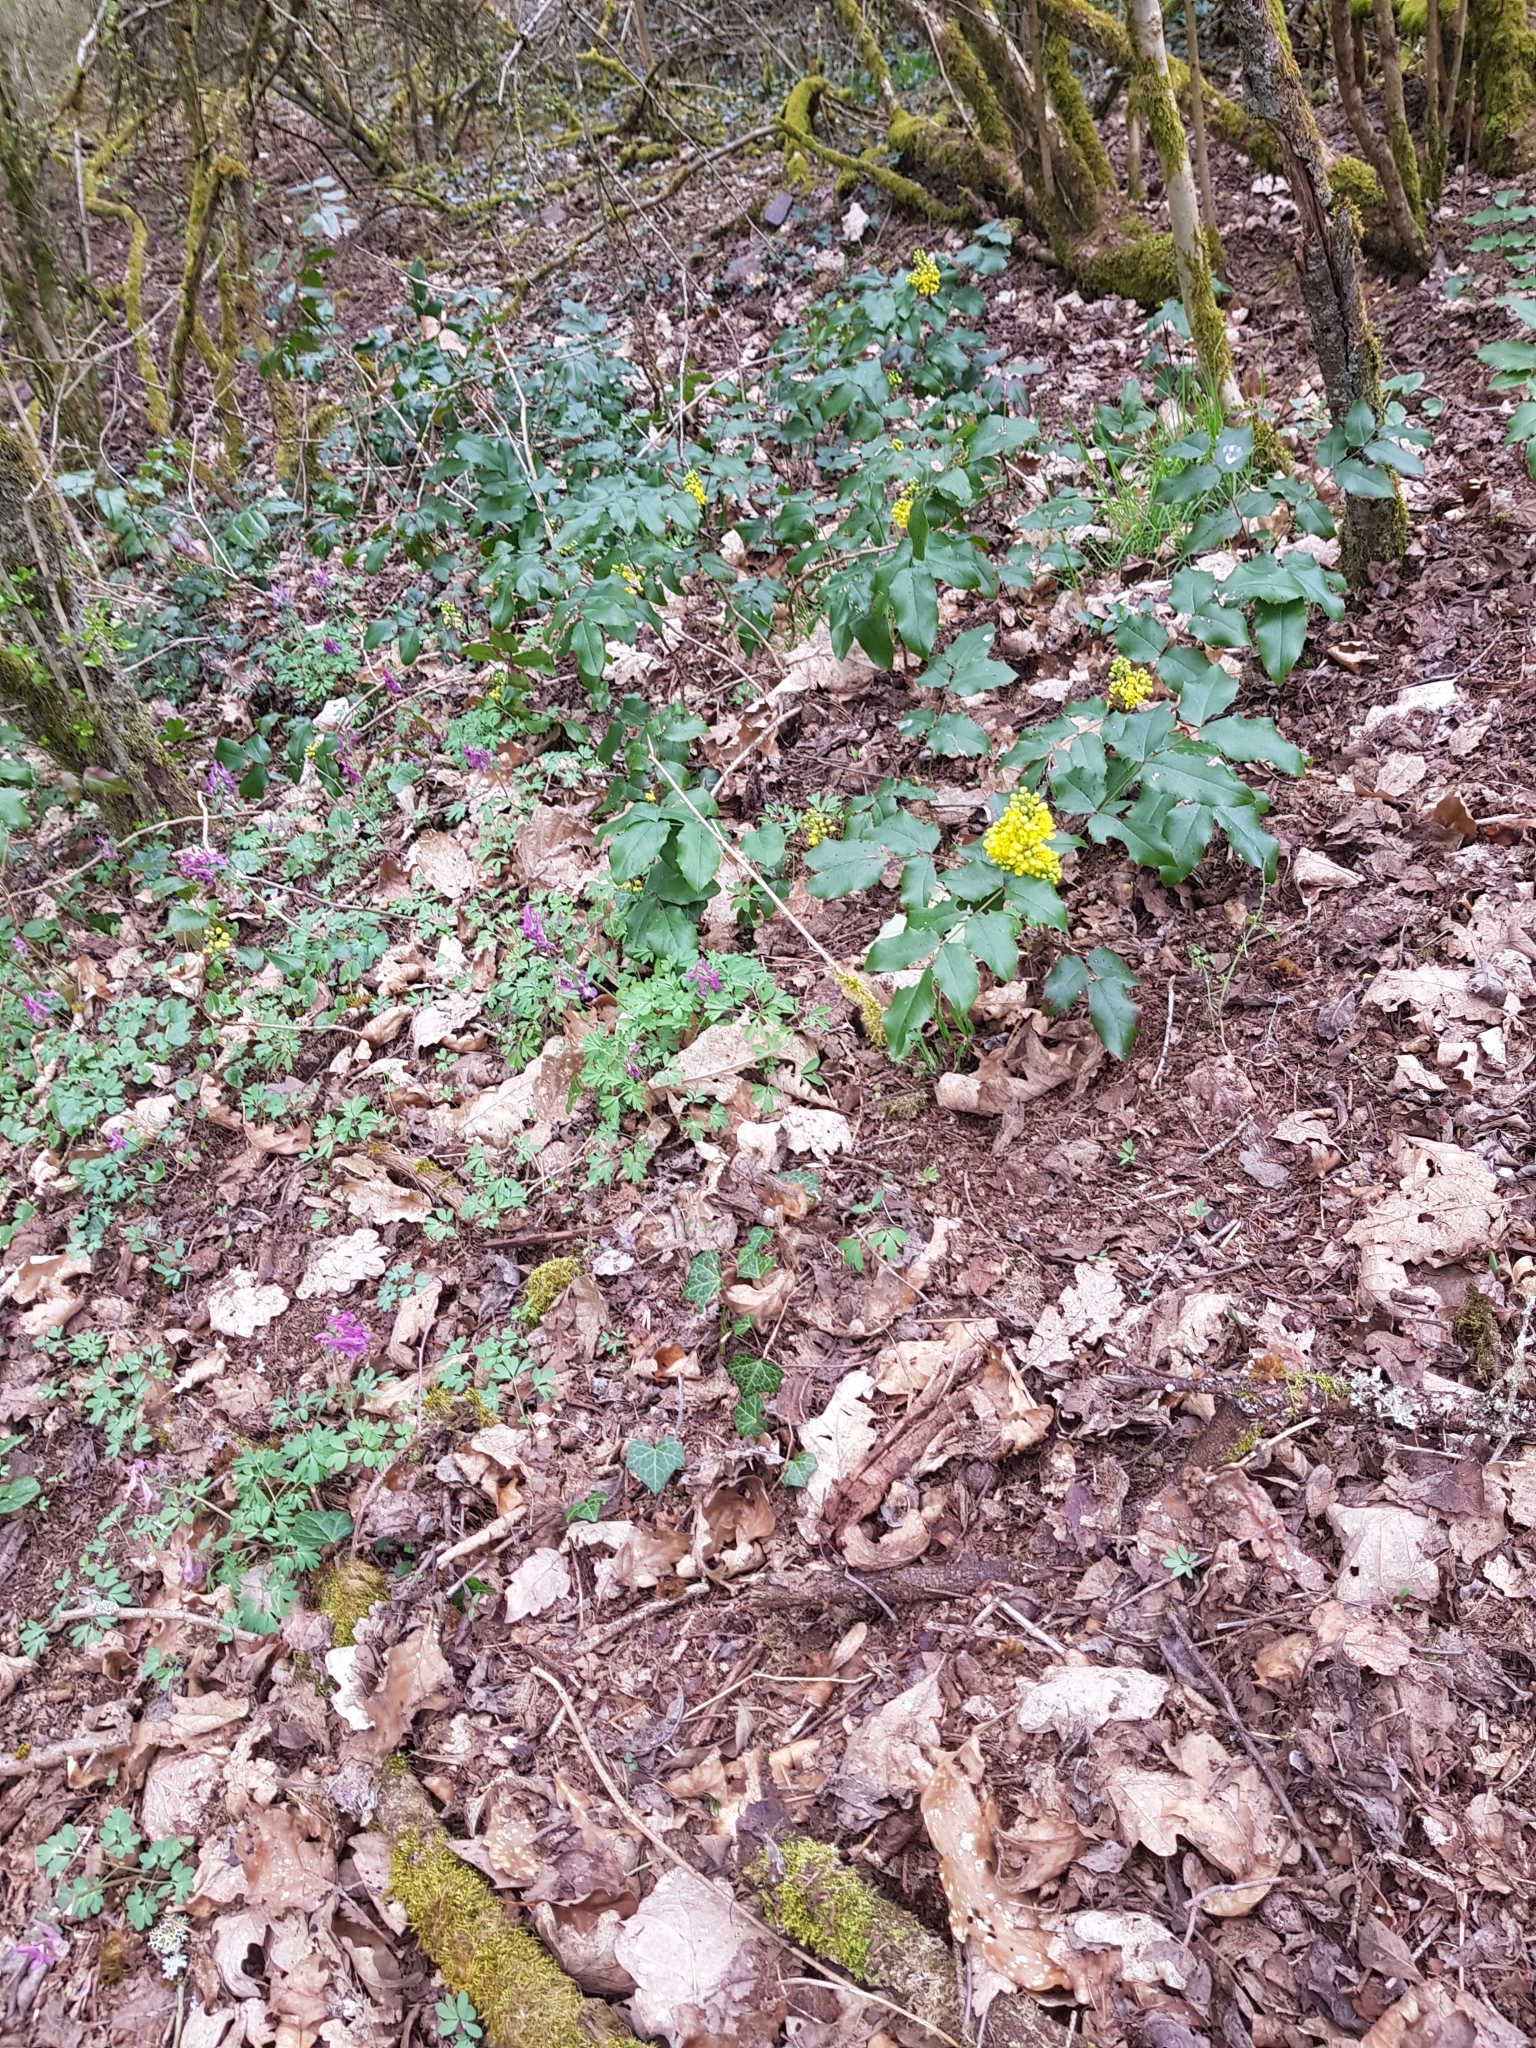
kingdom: Plantae
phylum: Tracheophyta
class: Magnoliopsida
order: Ranunculales
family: Berberidaceae
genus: Mahonia
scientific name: Mahonia aquifolium
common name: Oregon-grape
